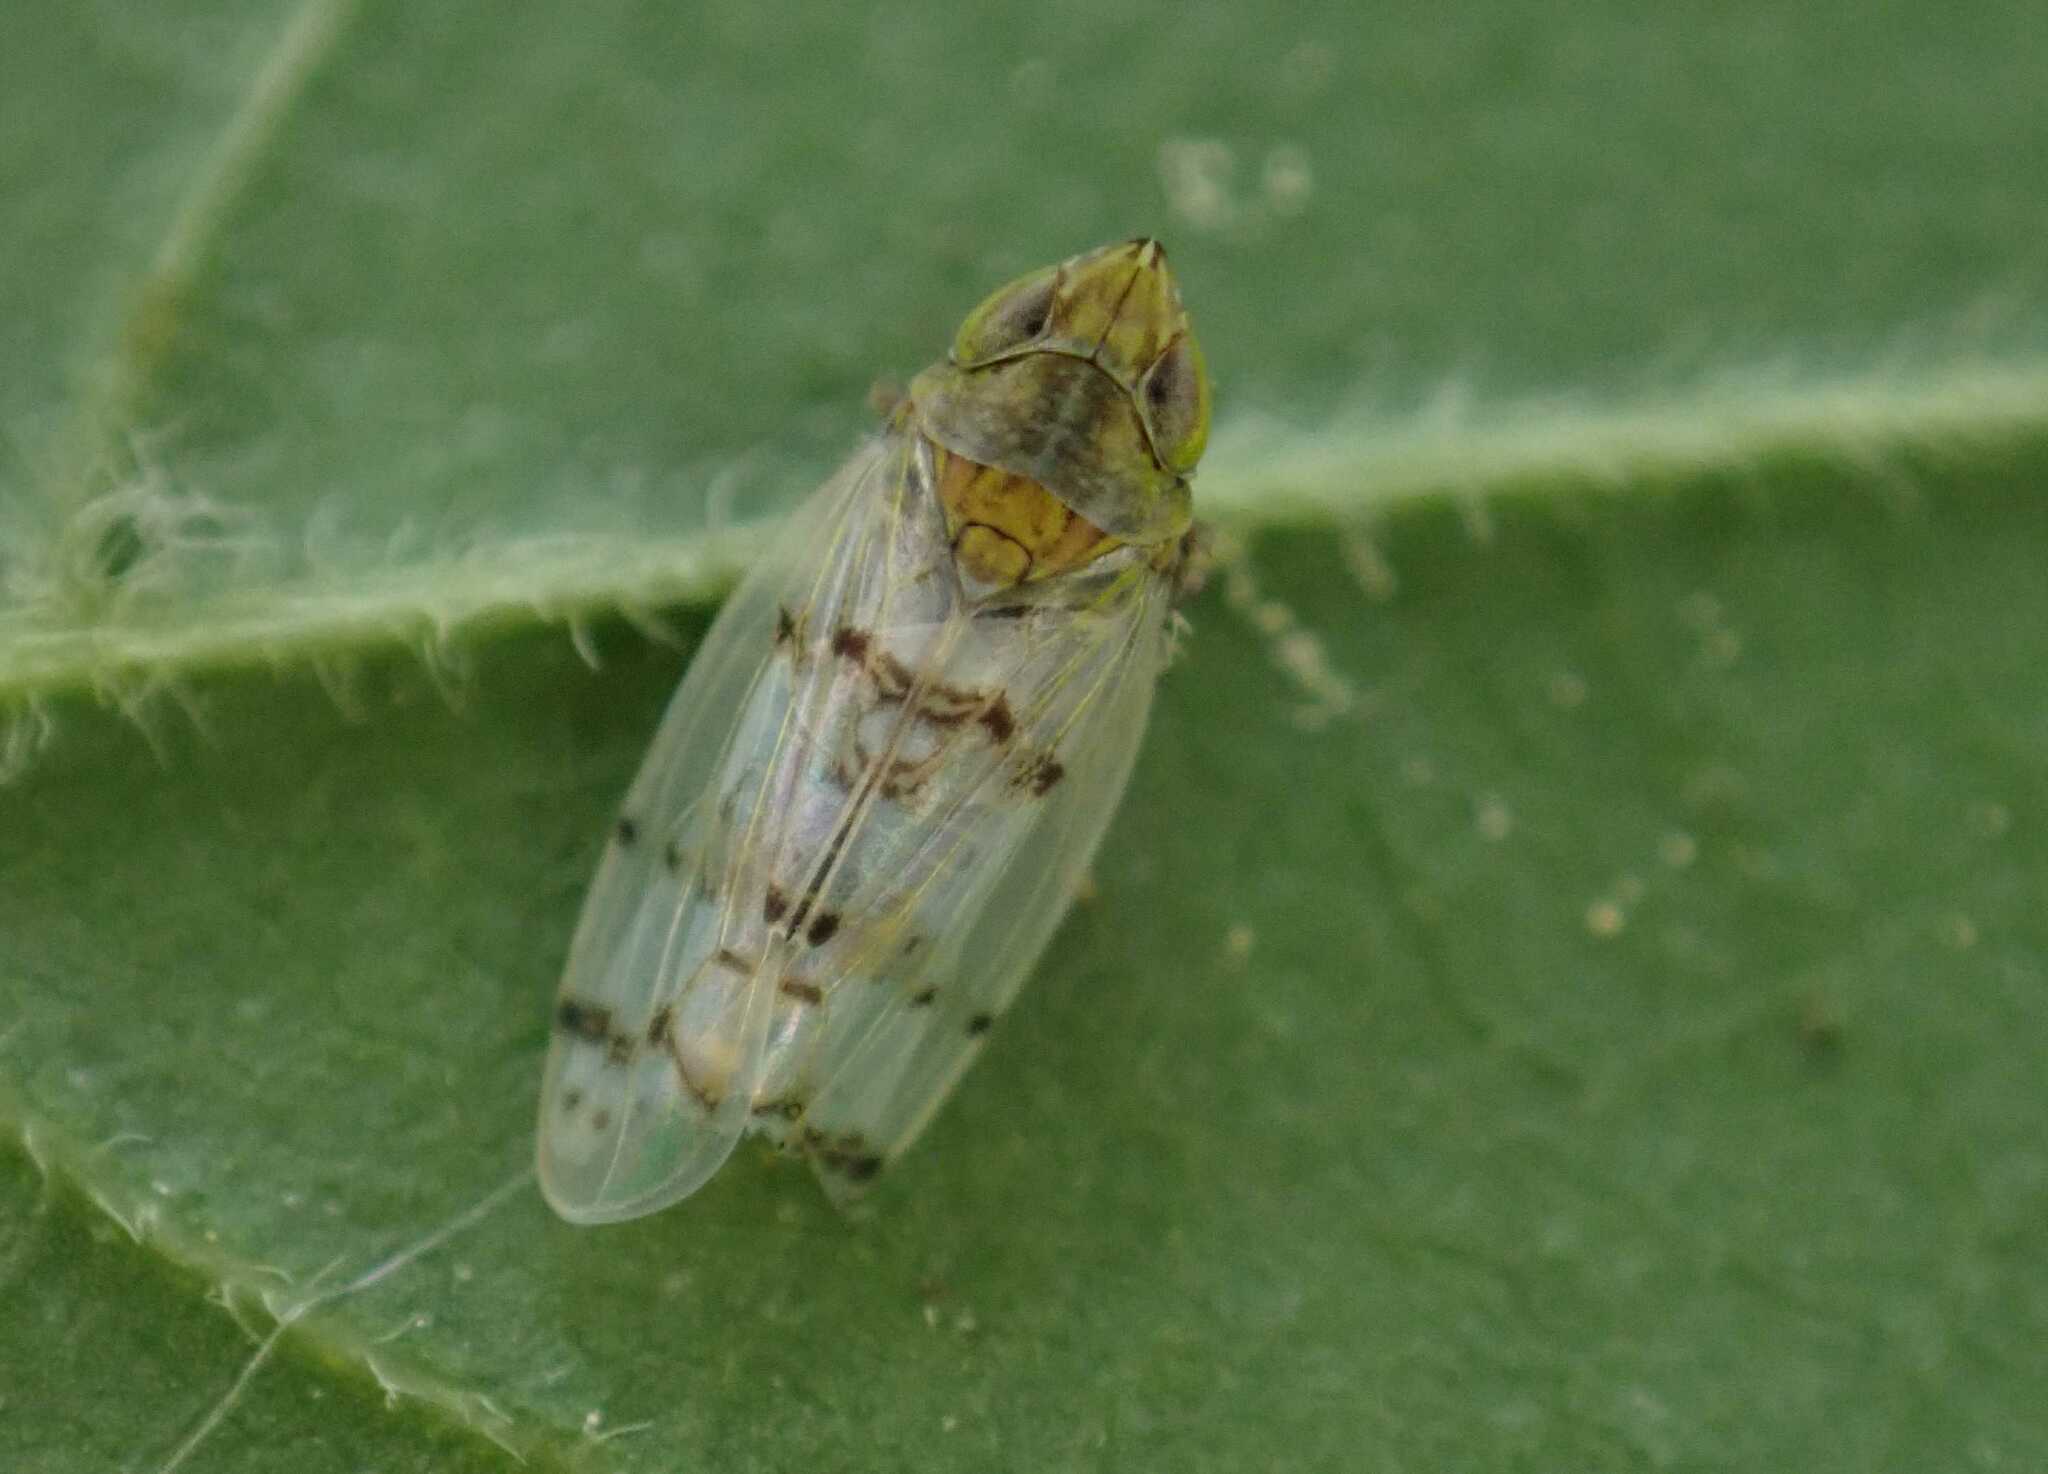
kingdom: Animalia
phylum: Arthropoda
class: Insecta
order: Hemiptera
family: Cicadellidae
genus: Japananus
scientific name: Japananus hyalinus
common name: The japanese maple leafhopper
